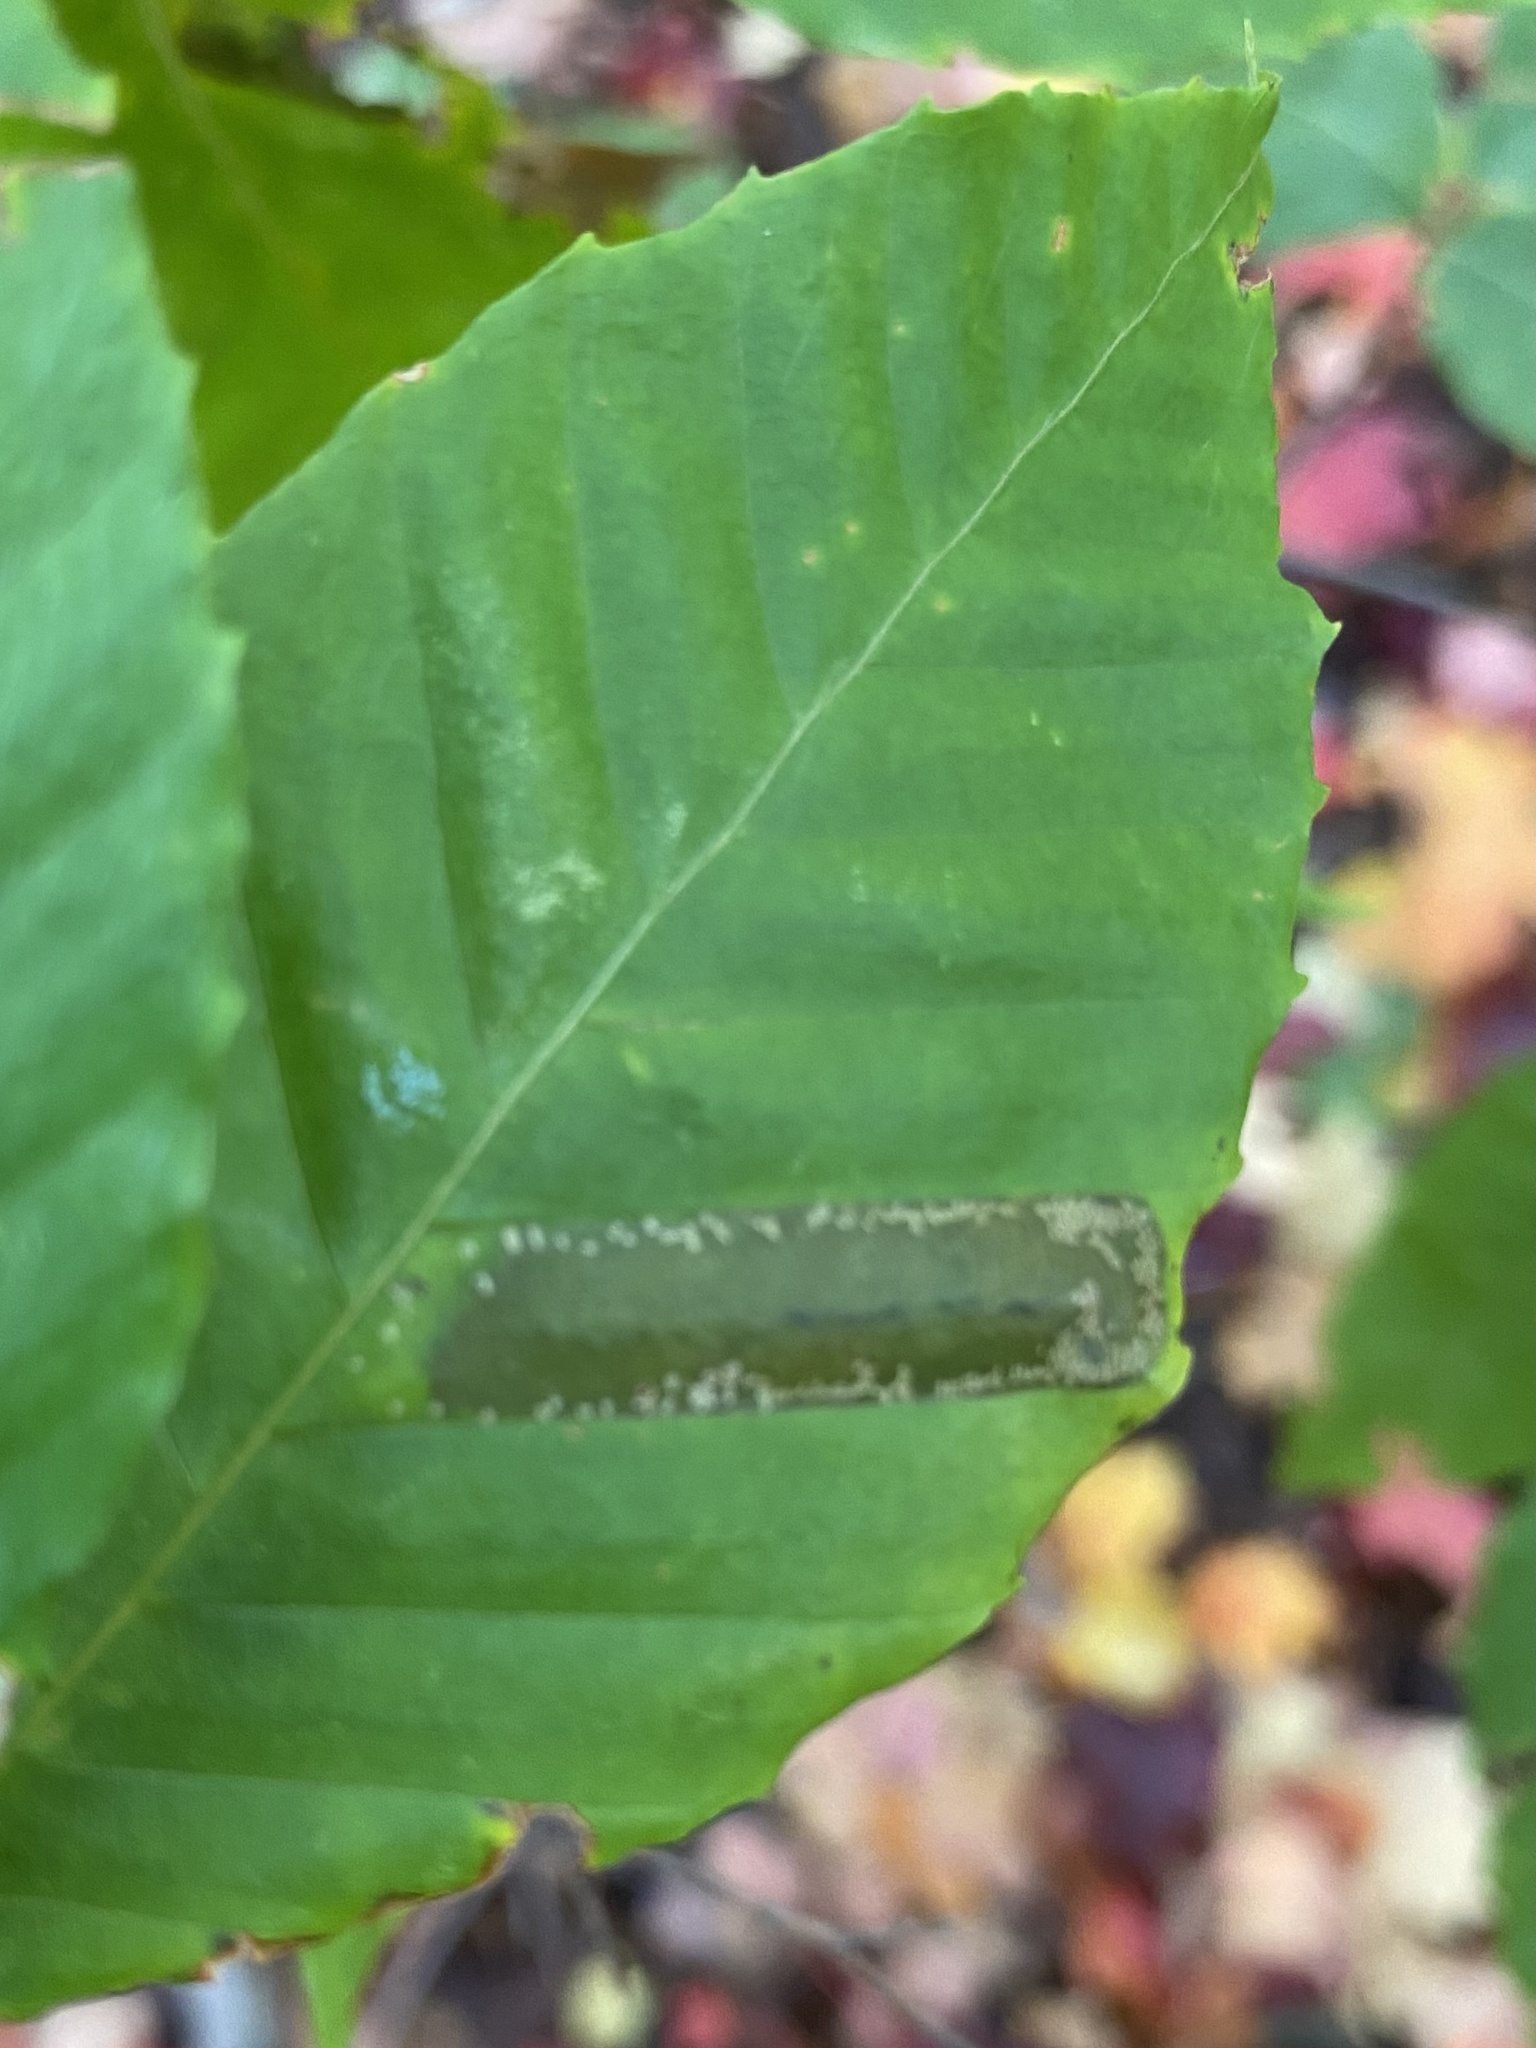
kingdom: Animalia
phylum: Arthropoda
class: Insecta
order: Lepidoptera
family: Gracillariidae
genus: Phyllonorycter
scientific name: Phyllonorycter maestingella
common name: Beech midget
